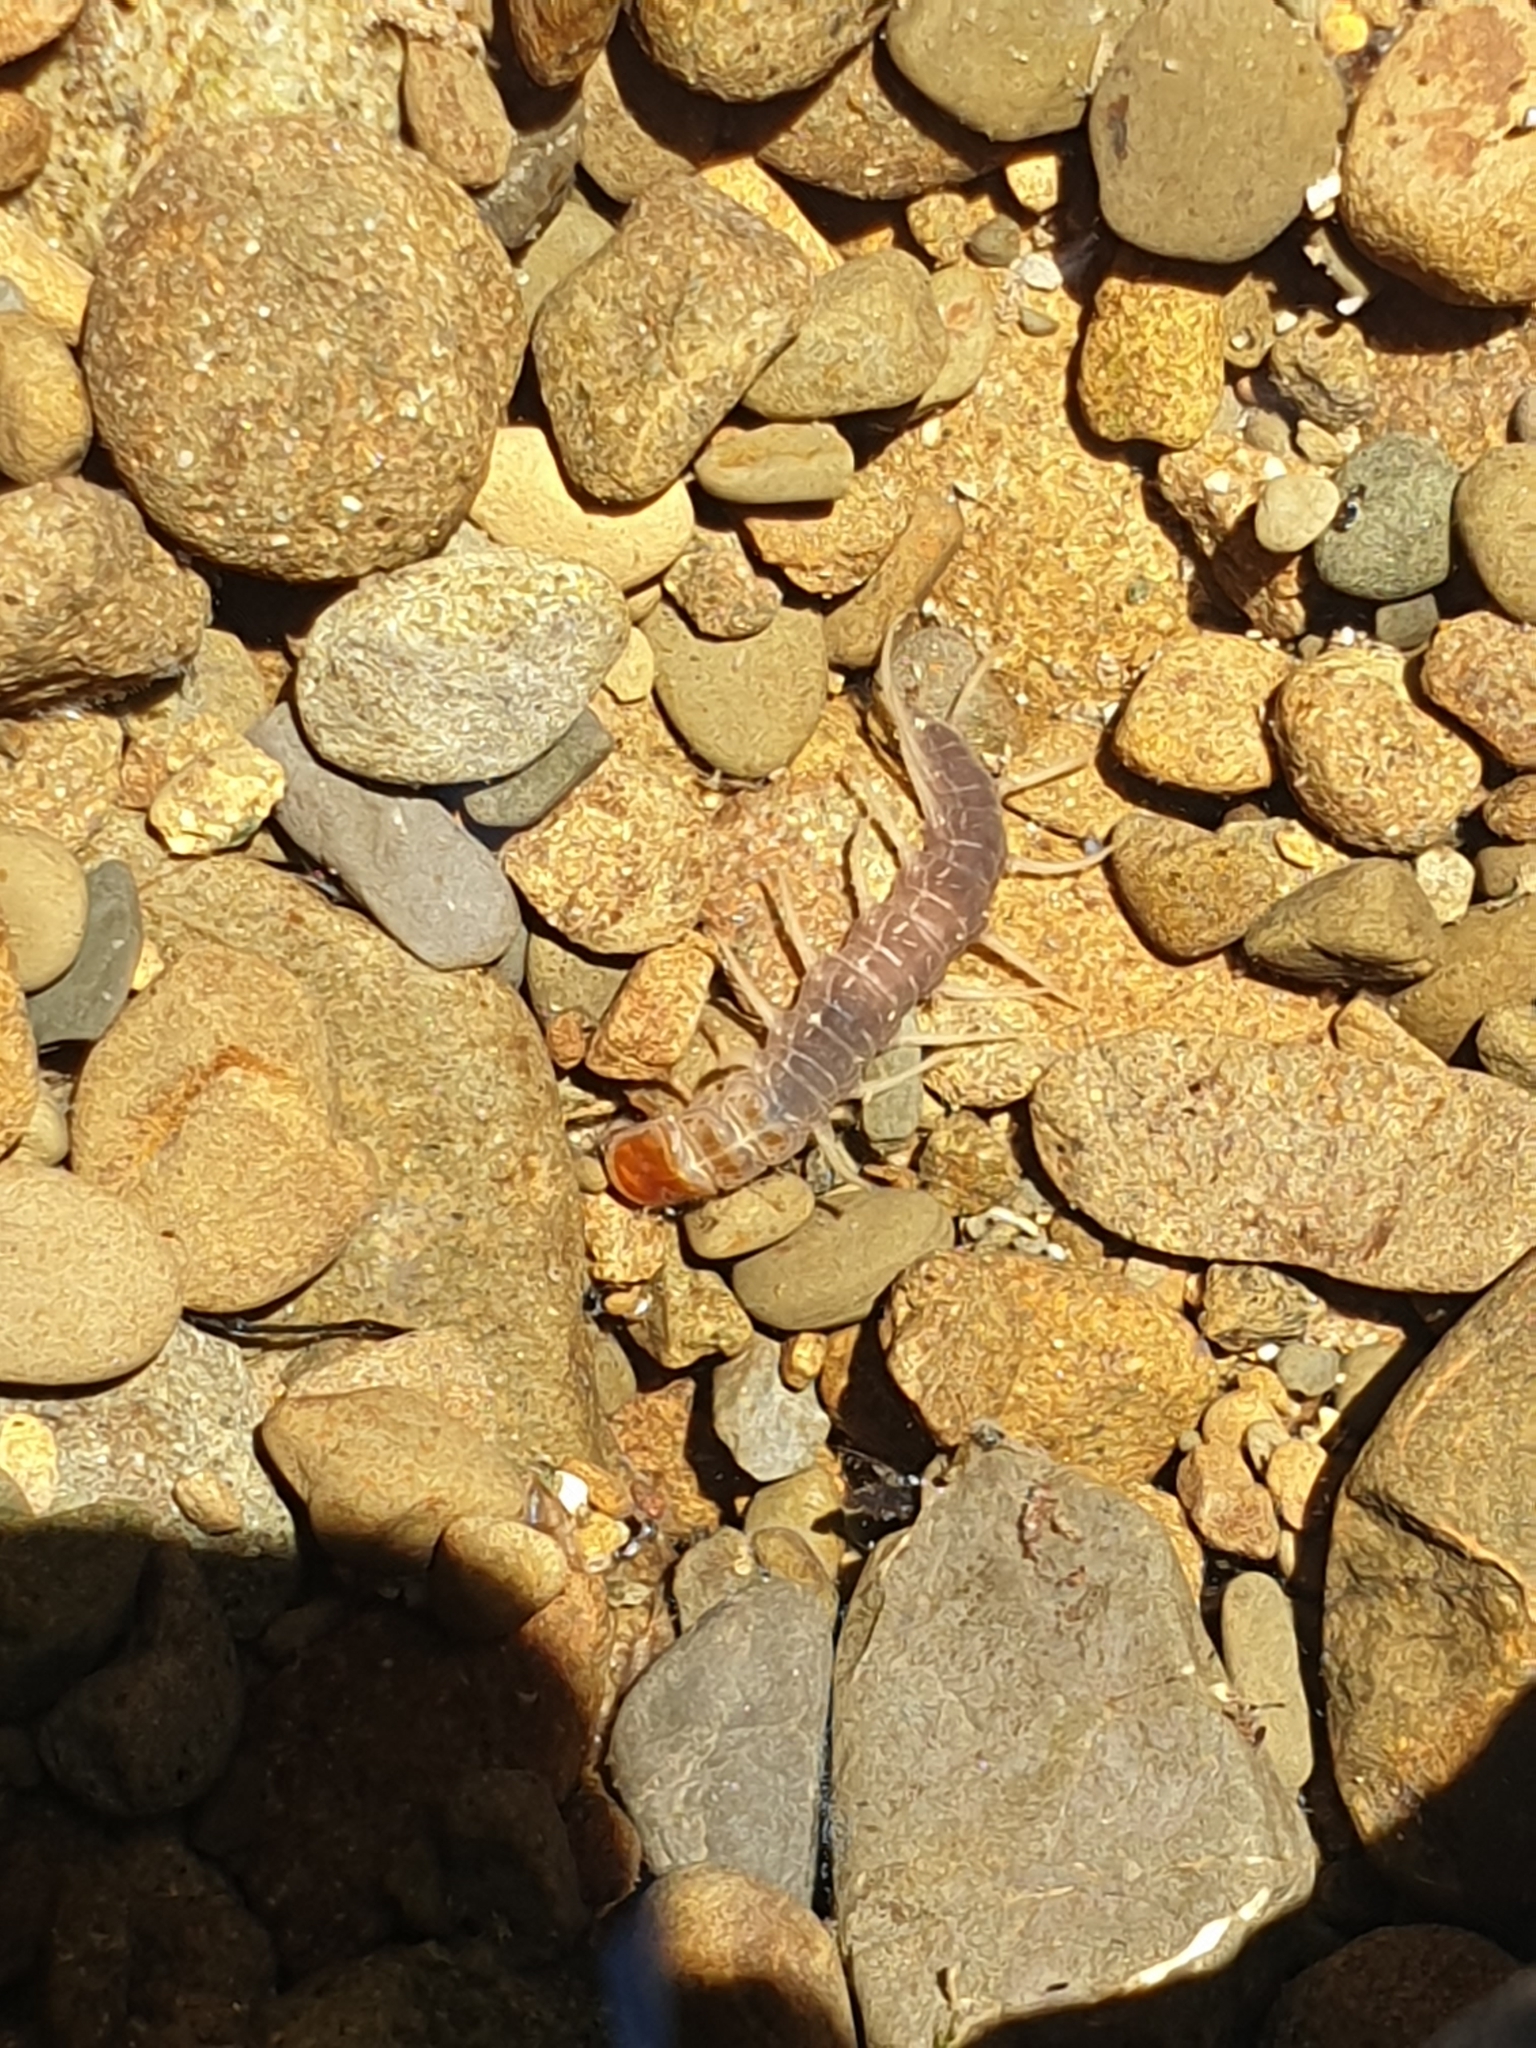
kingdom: Animalia
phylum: Arthropoda
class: Insecta
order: Megaloptera
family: Corydalidae
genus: Archichauliodes
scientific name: Archichauliodes diversus
